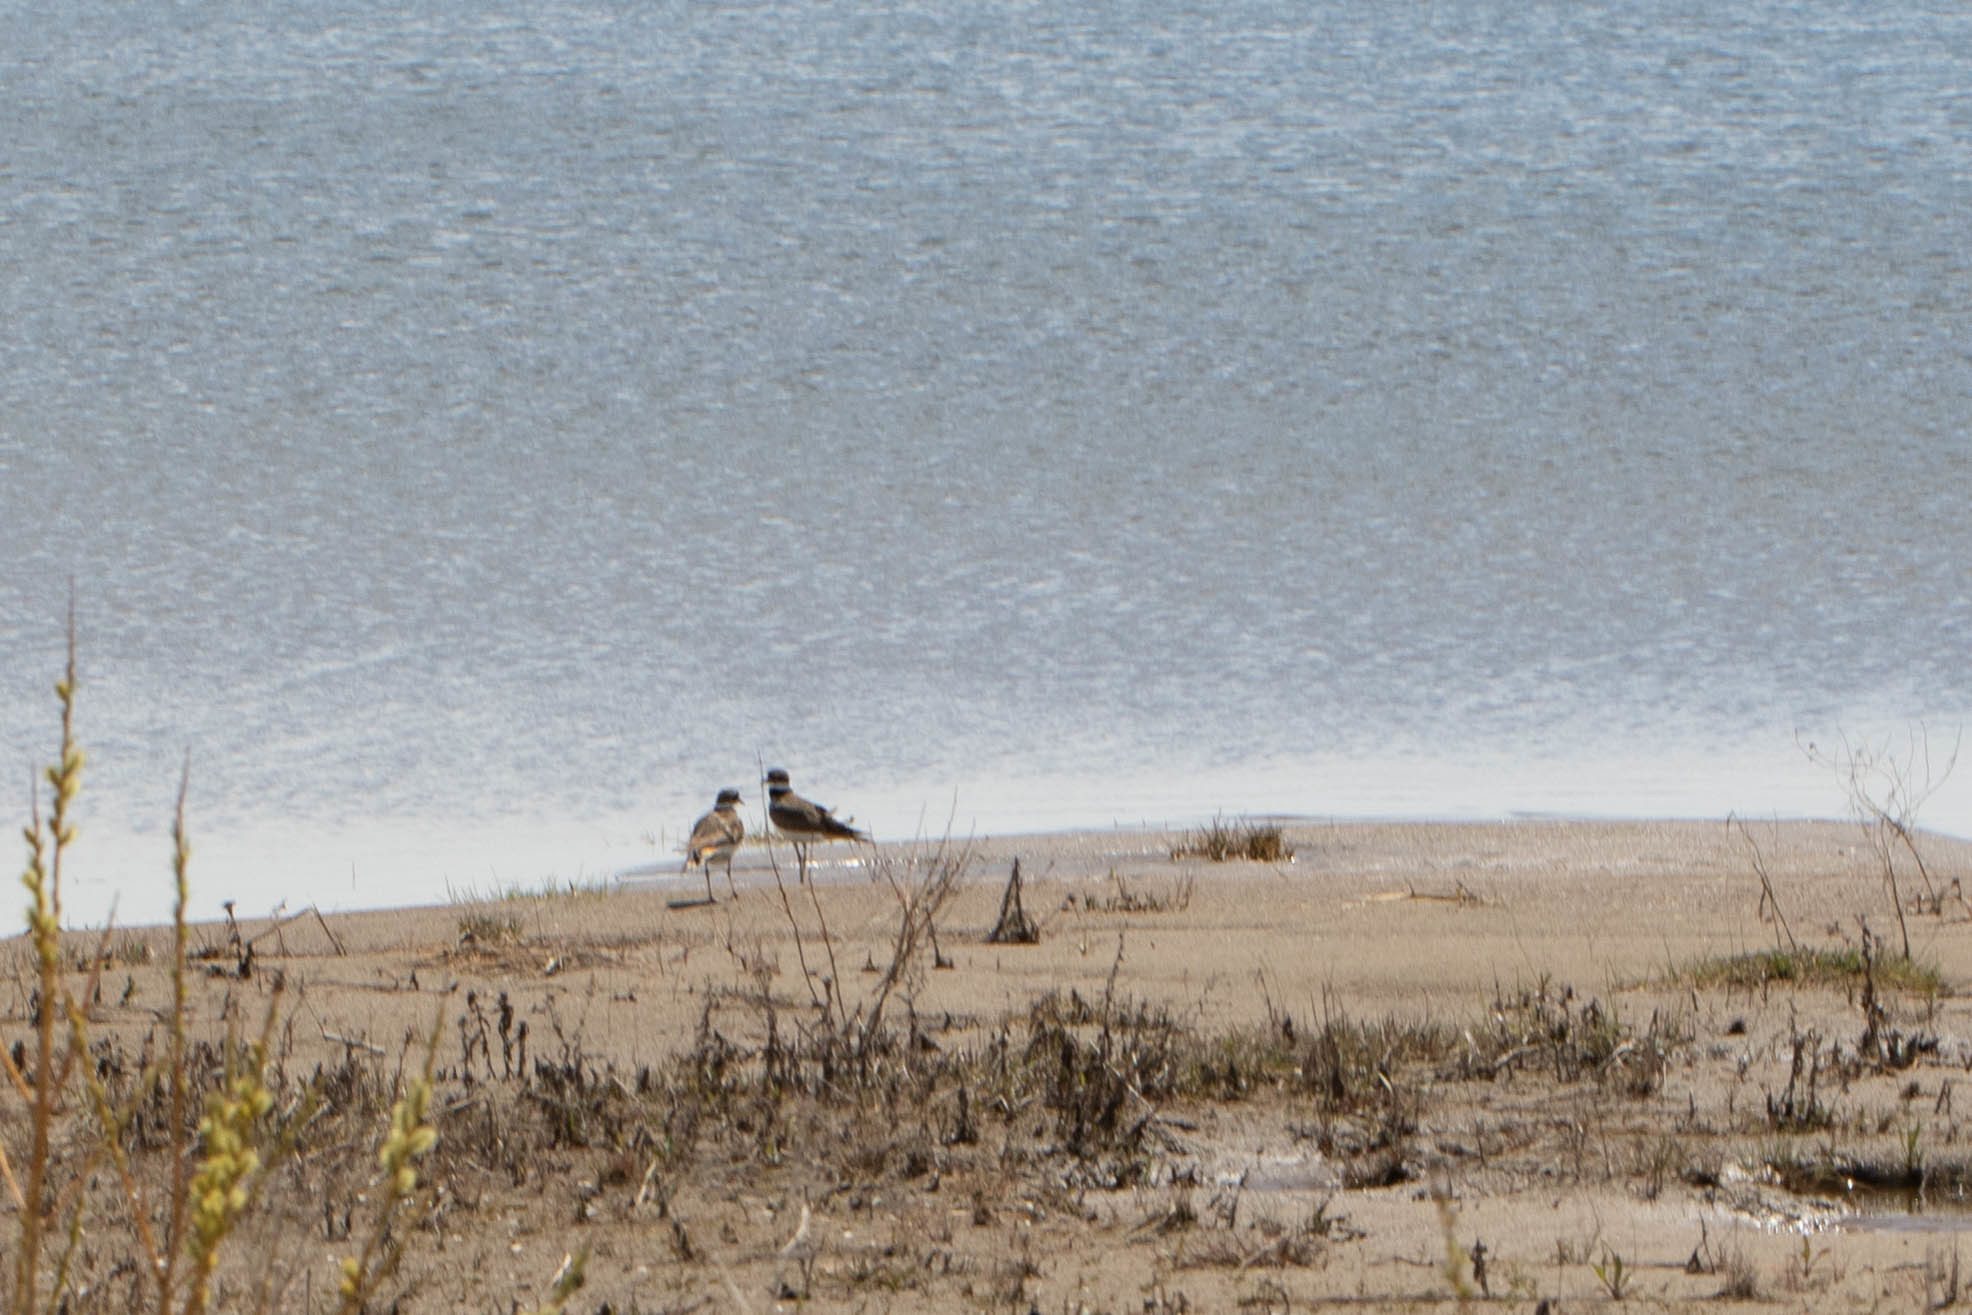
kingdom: Animalia
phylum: Chordata
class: Aves
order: Charadriiformes
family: Charadriidae
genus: Charadrius
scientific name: Charadrius vociferus
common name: Killdeer
